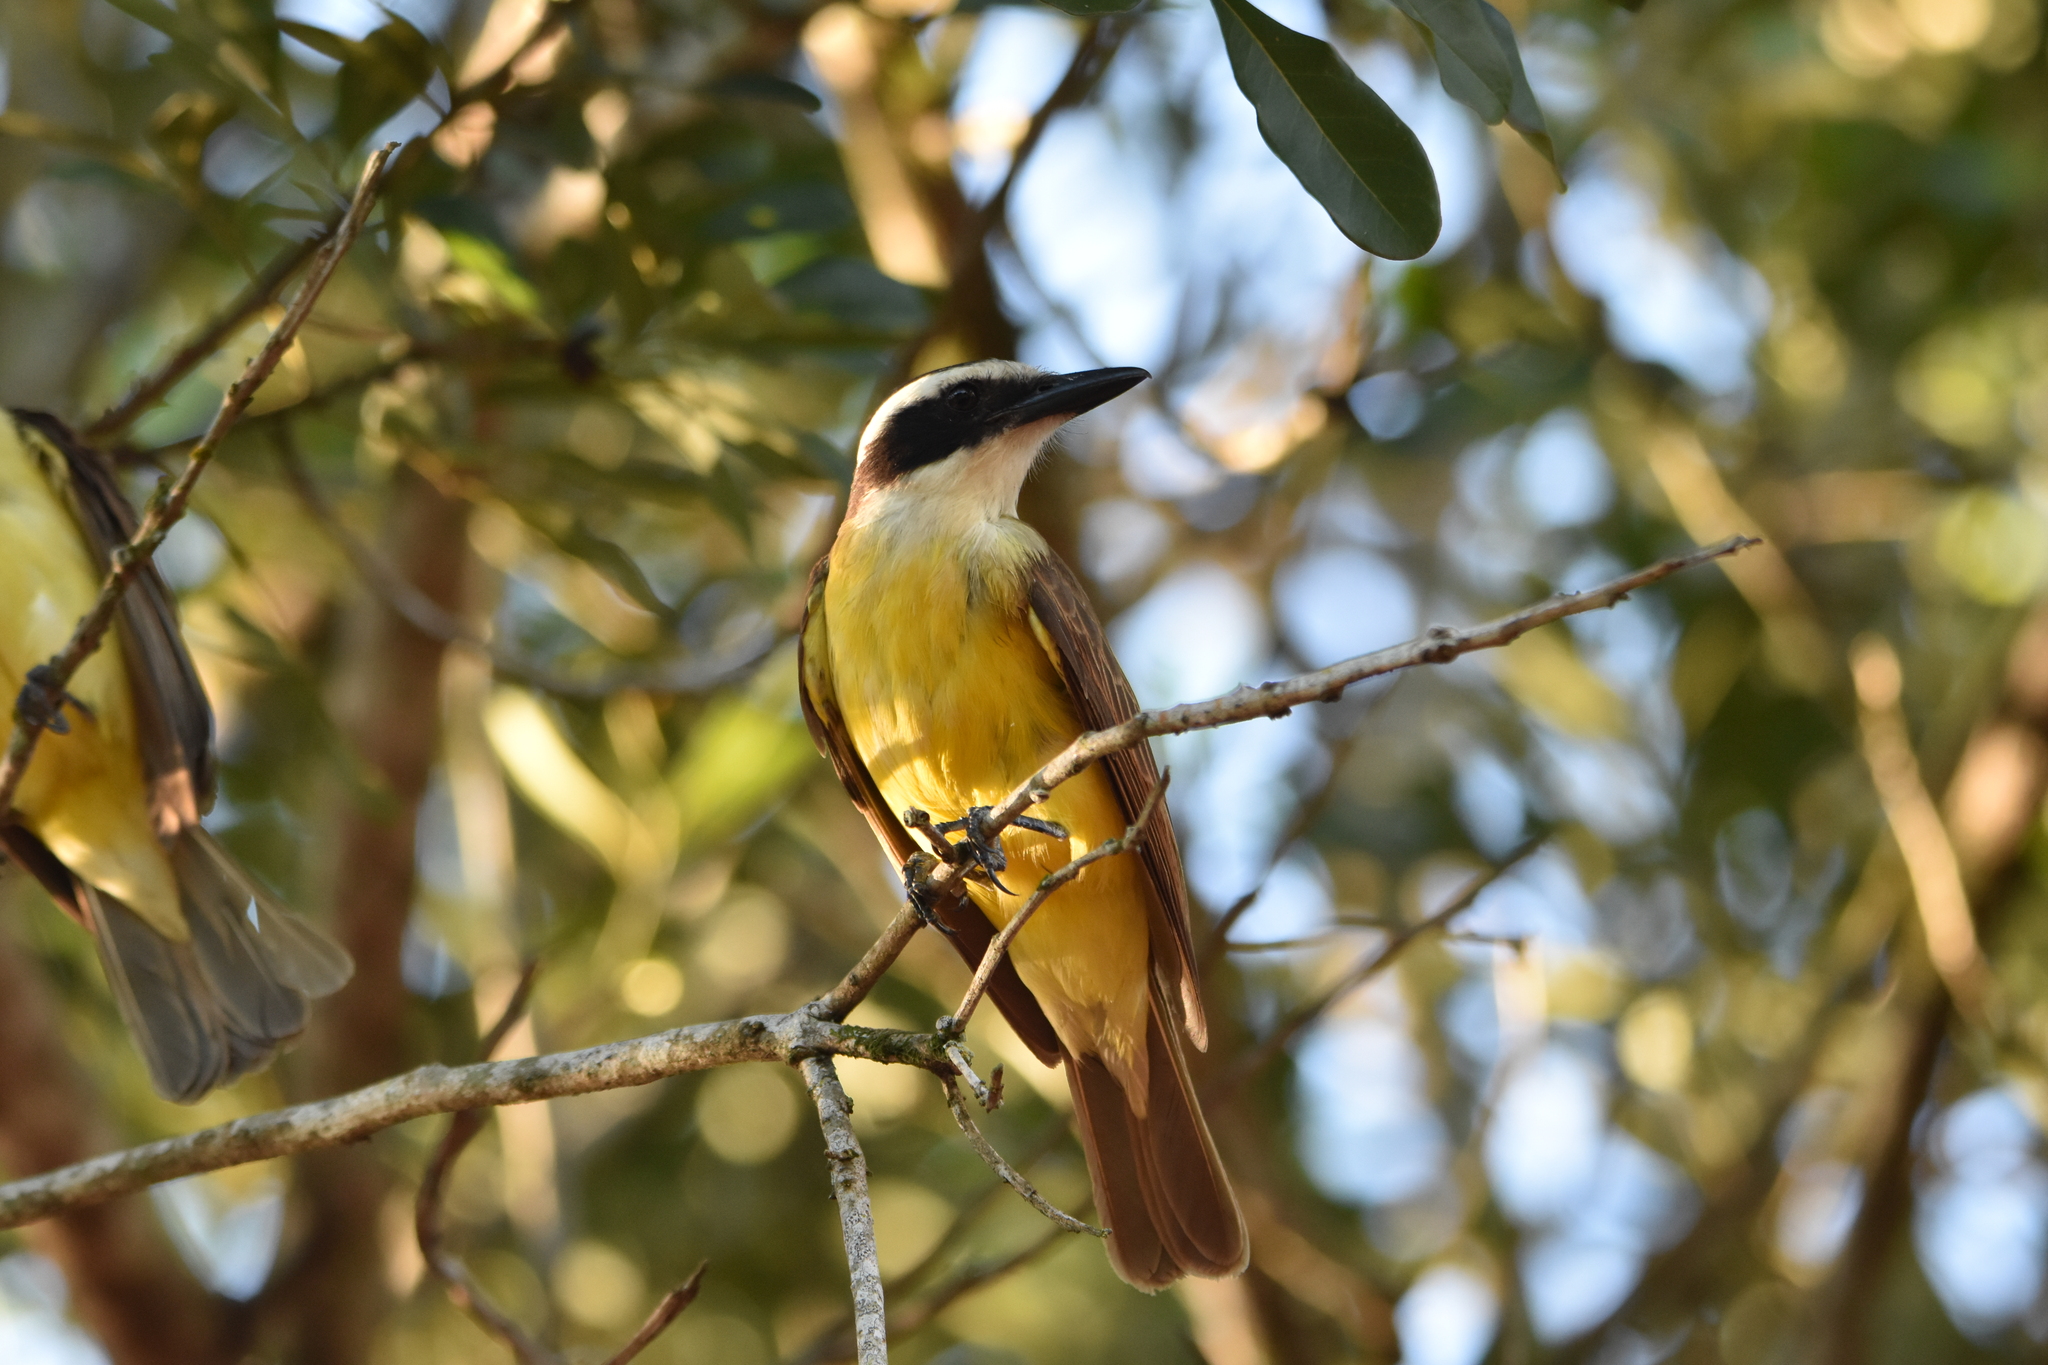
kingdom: Animalia
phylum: Chordata
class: Aves
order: Passeriformes
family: Tyrannidae
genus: Pitangus
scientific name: Pitangus sulphuratus
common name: Great kiskadee
